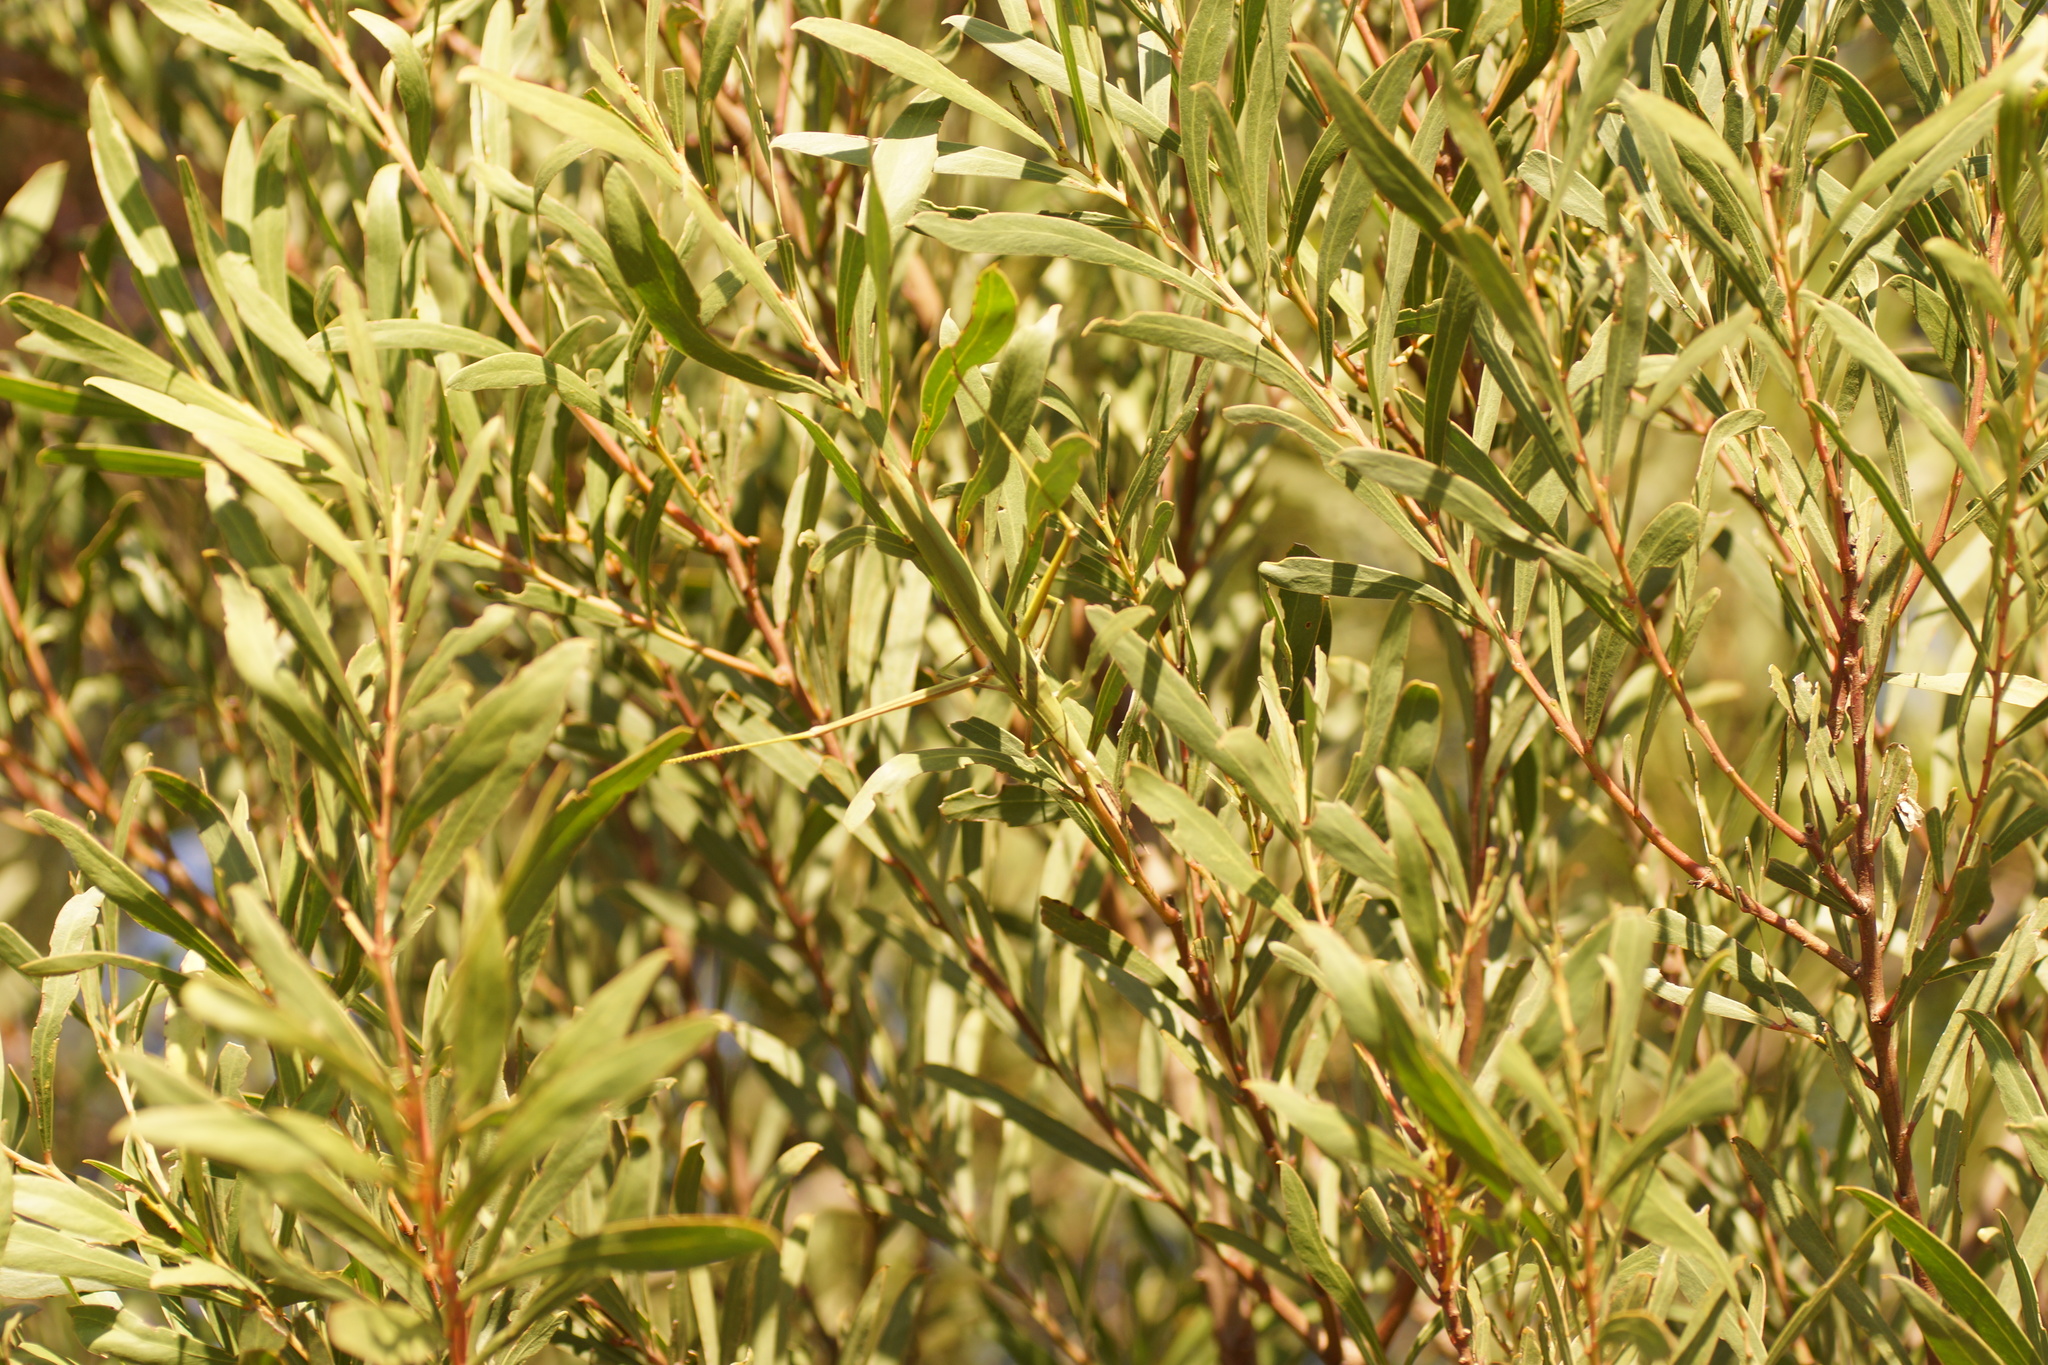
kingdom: Animalia
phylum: Arthropoda
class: Insecta
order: Orthoptera
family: Acrididae
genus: Acrida
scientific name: Acrida conica
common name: Giant green slantface
